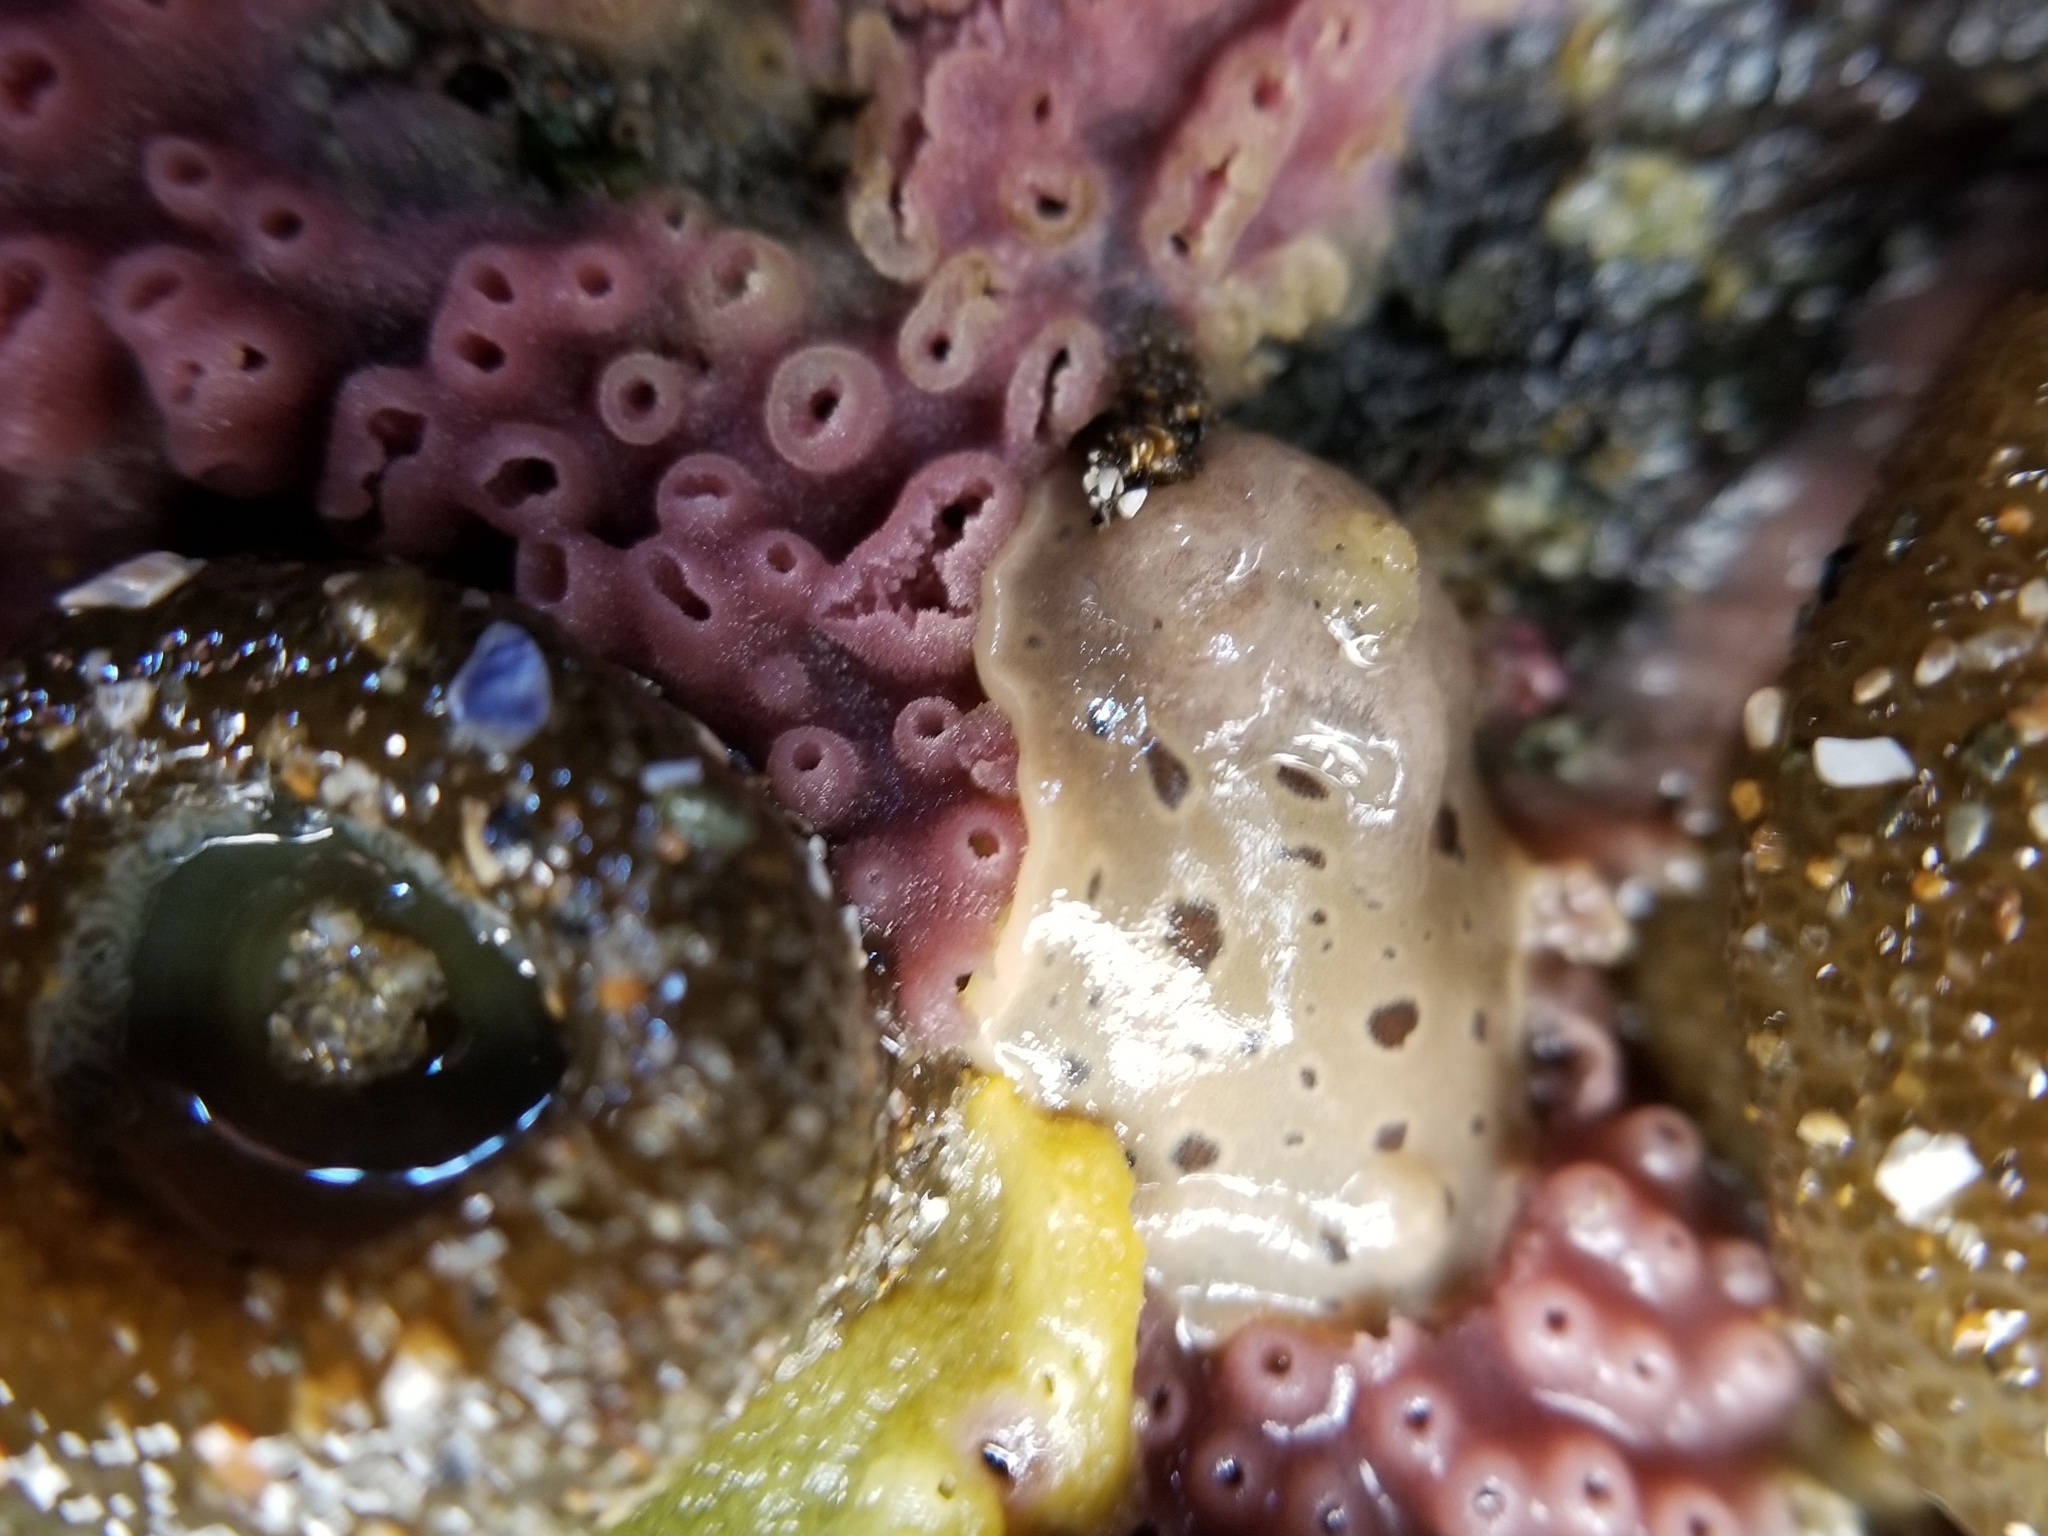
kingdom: Animalia
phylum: Mollusca
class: Gastropoda
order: Nudibranchia
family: Discodorididae
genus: Diaulula
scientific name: Diaulula odonoghuei
